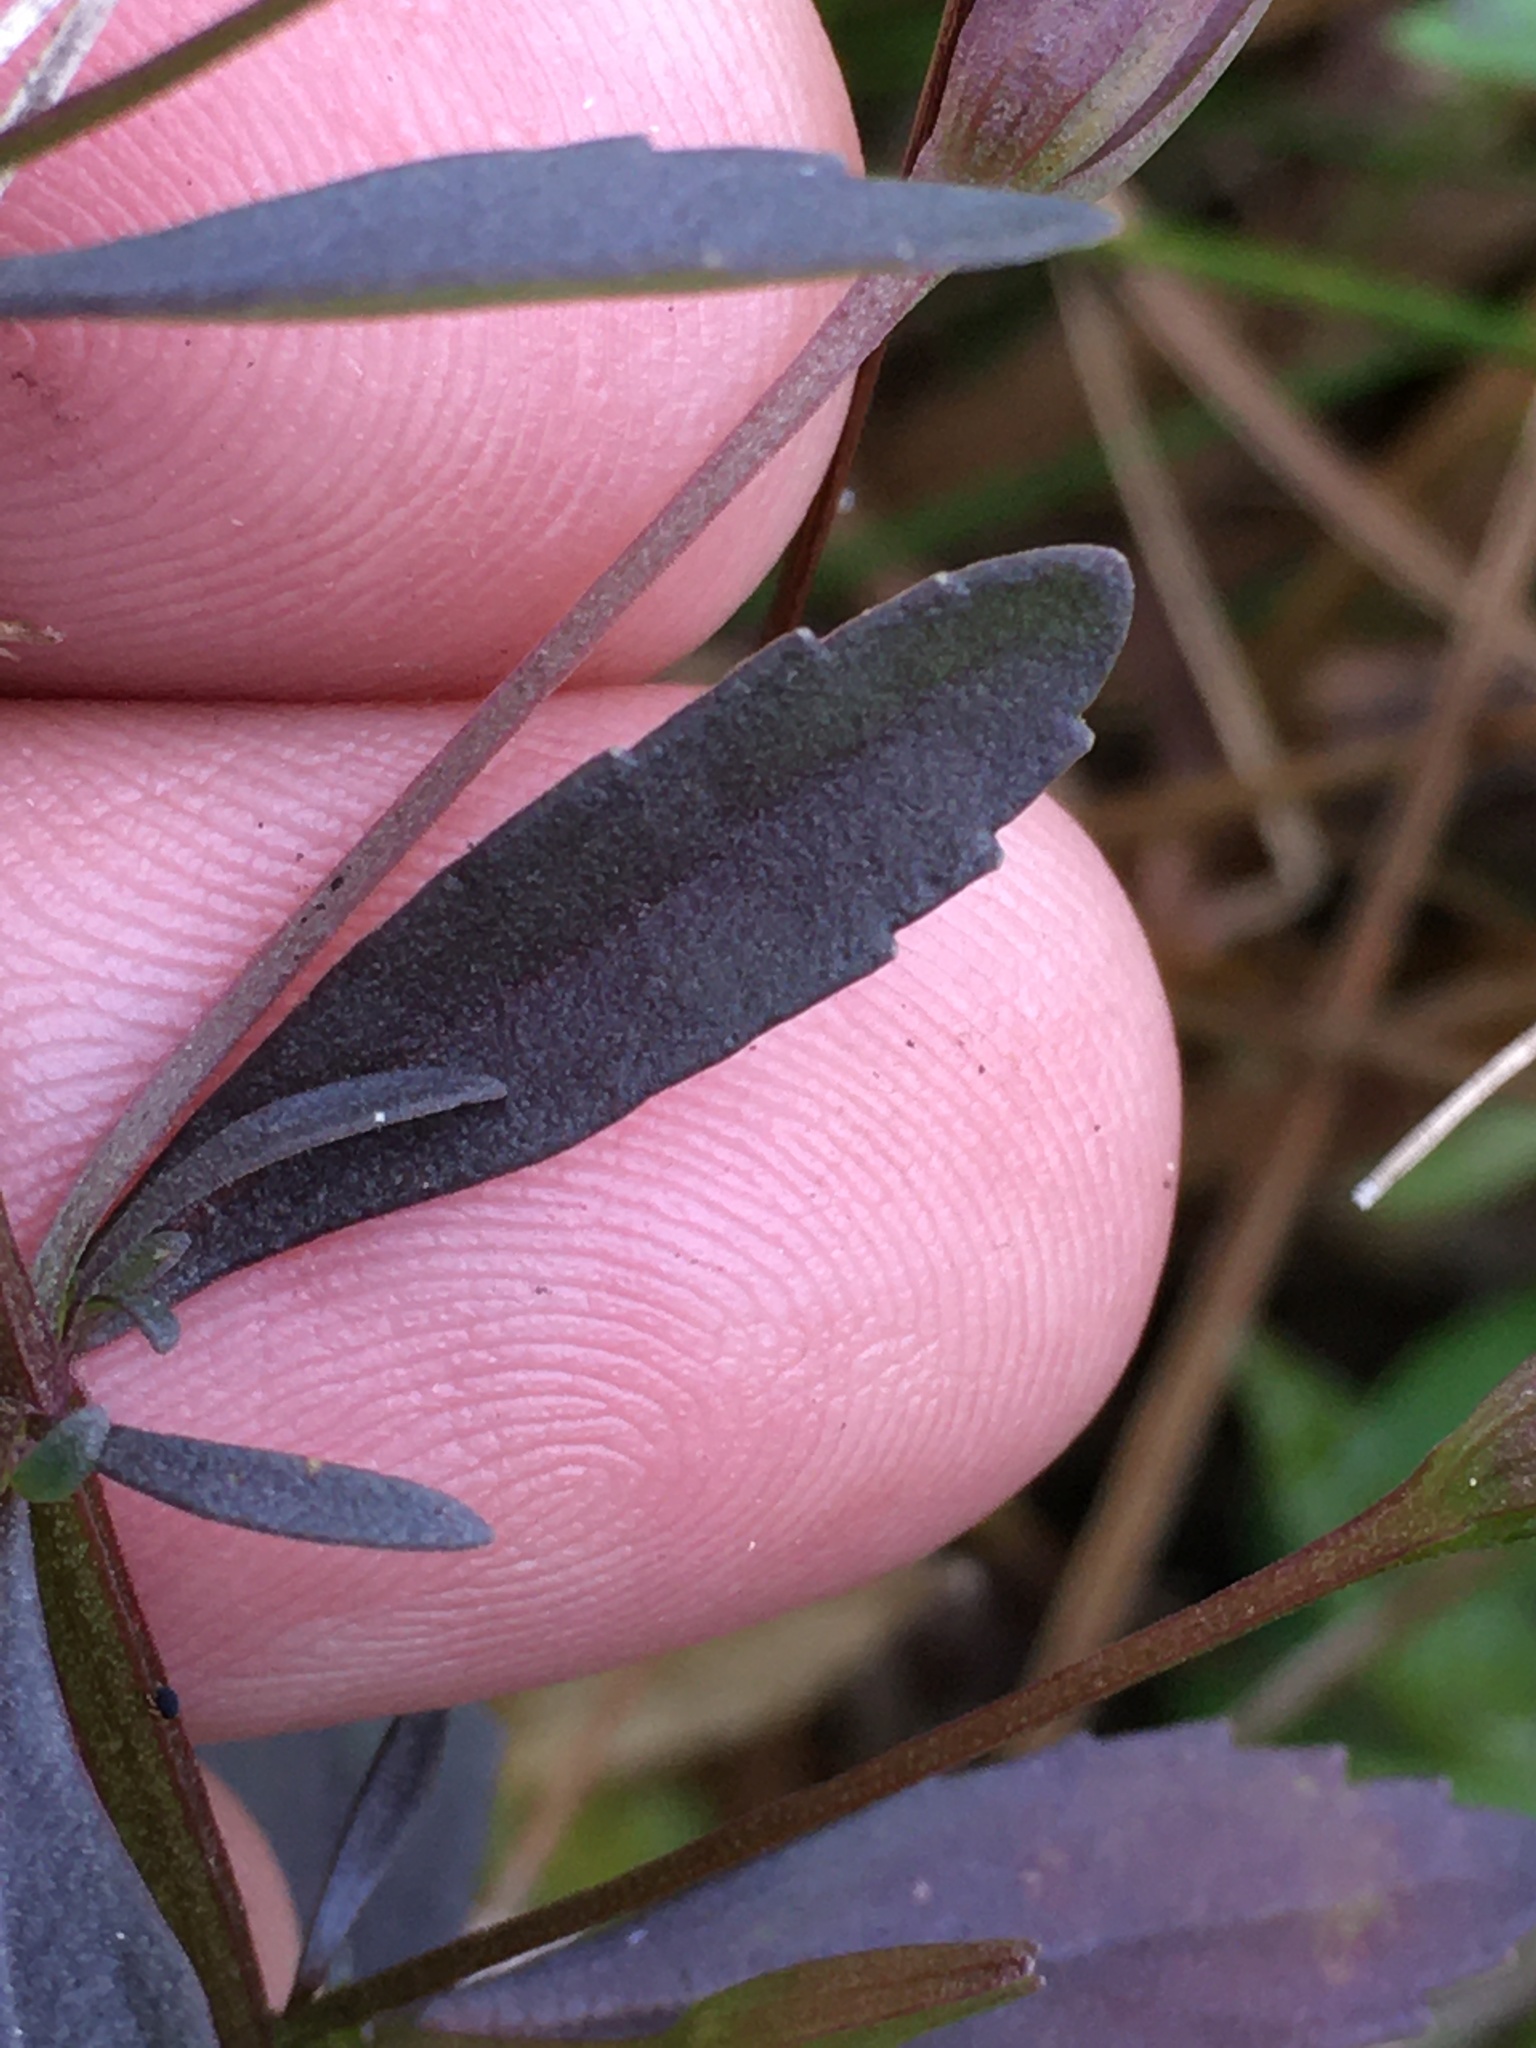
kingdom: Plantae
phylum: Tracheophyta
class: Magnoliopsida
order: Lamiales
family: Plantaginaceae
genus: Mecardonia
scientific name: Mecardonia acuminata
